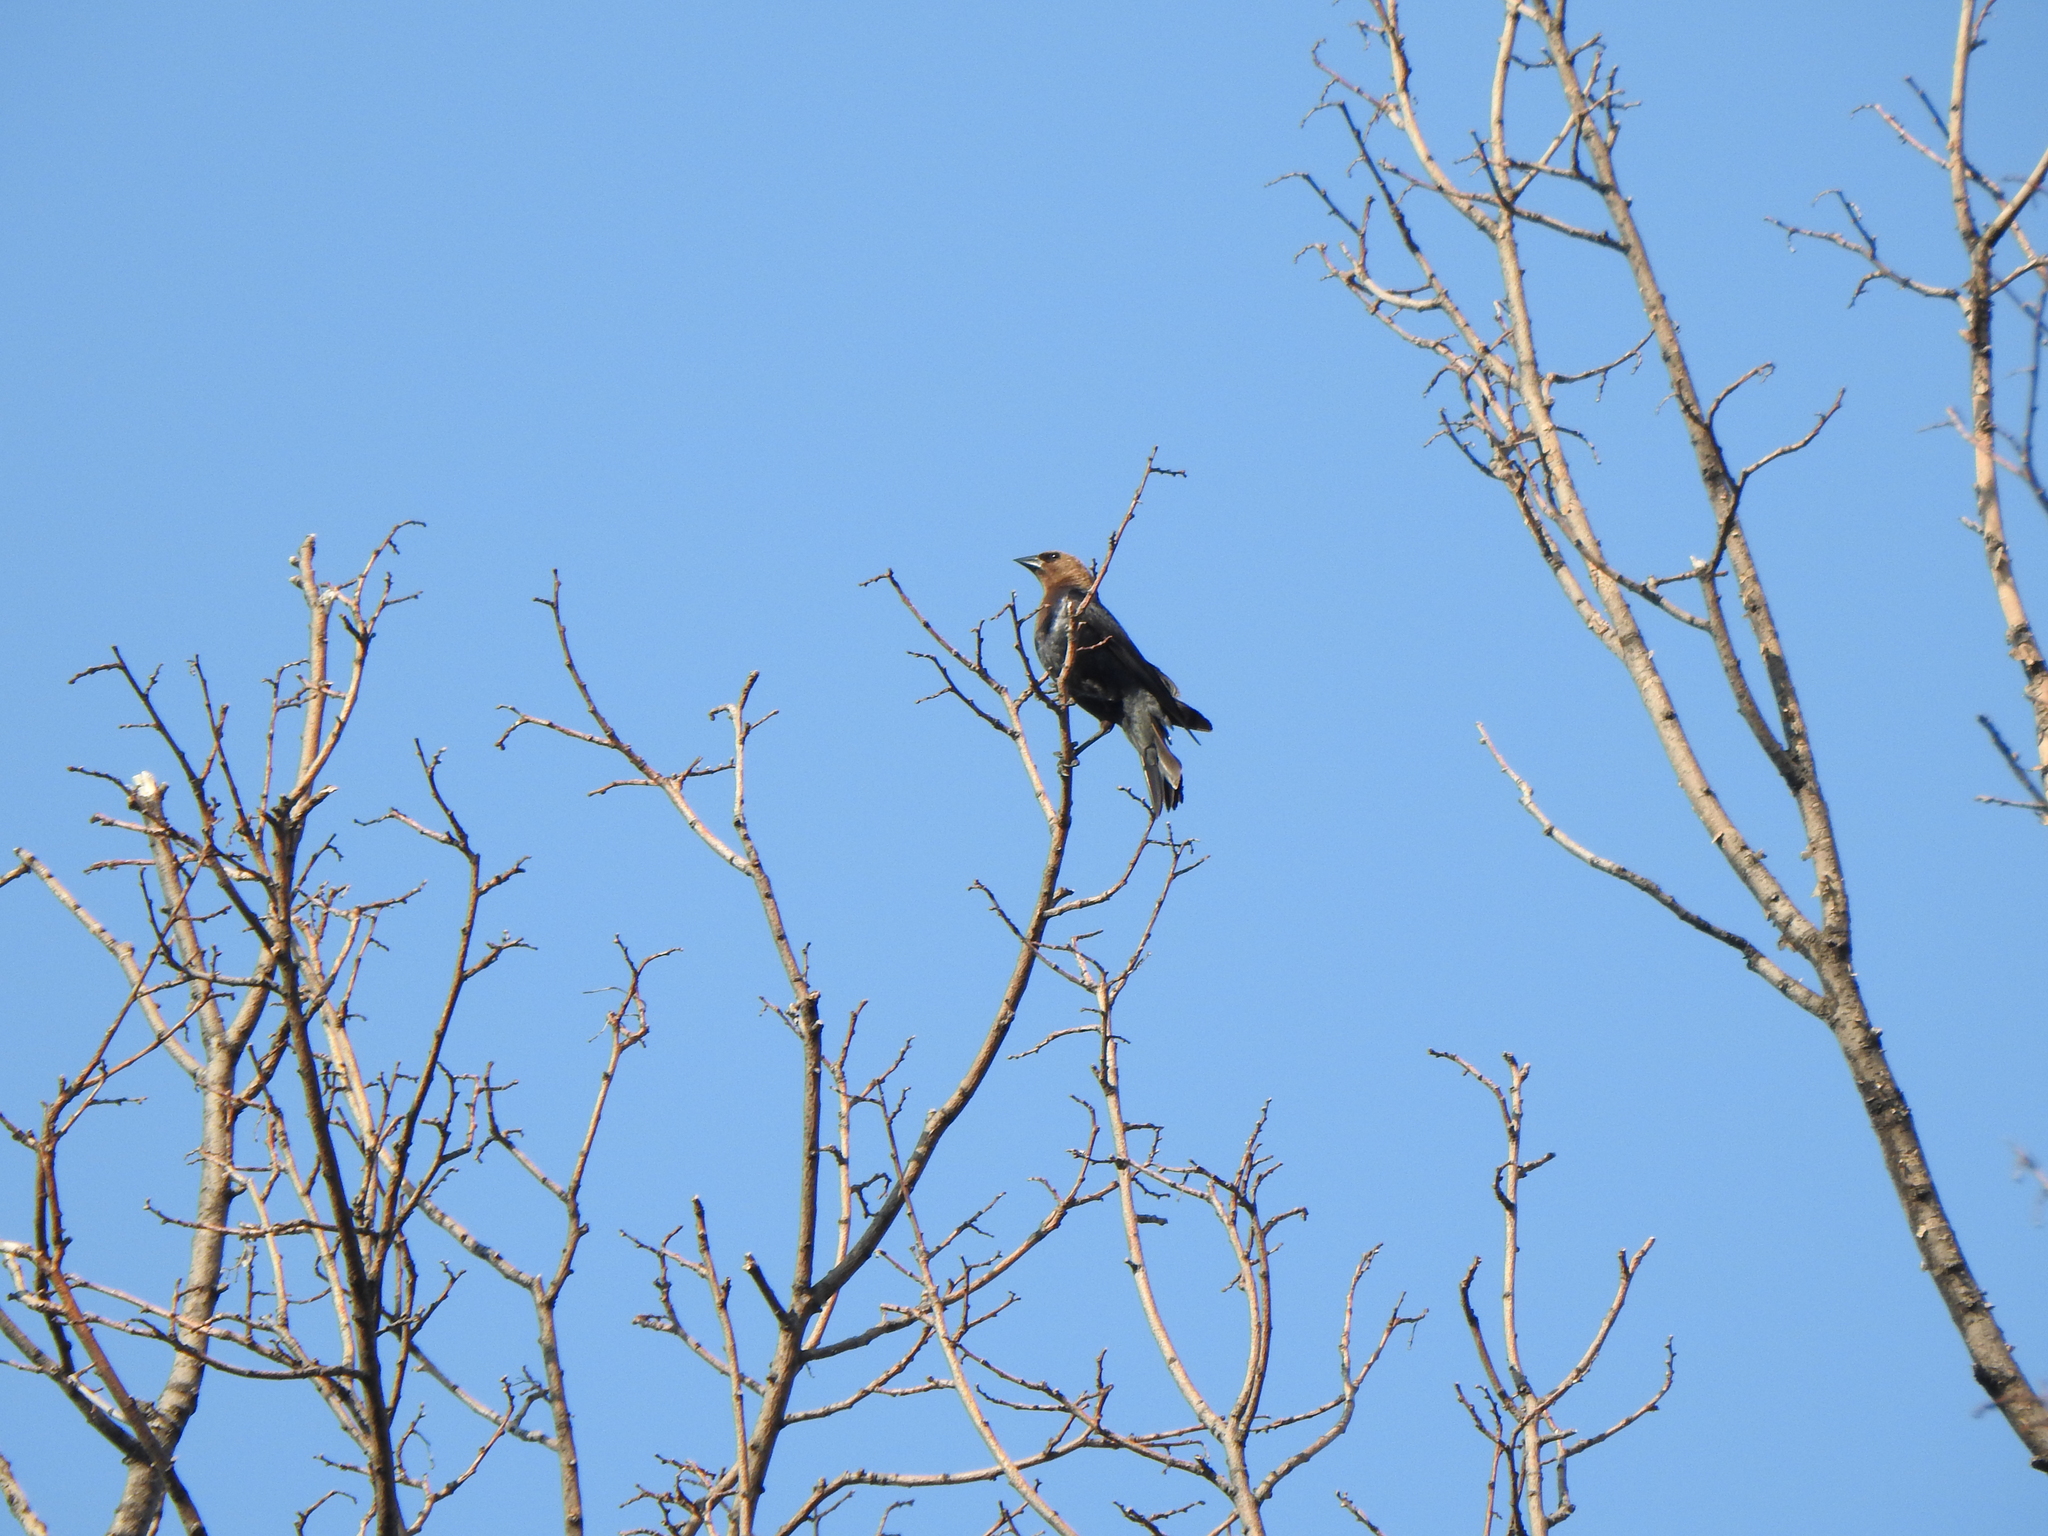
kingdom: Animalia
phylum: Chordata
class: Aves
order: Passeriformes
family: Icteridae
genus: Molothrus
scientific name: Molothrus ater
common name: Brown-headed cowbird
